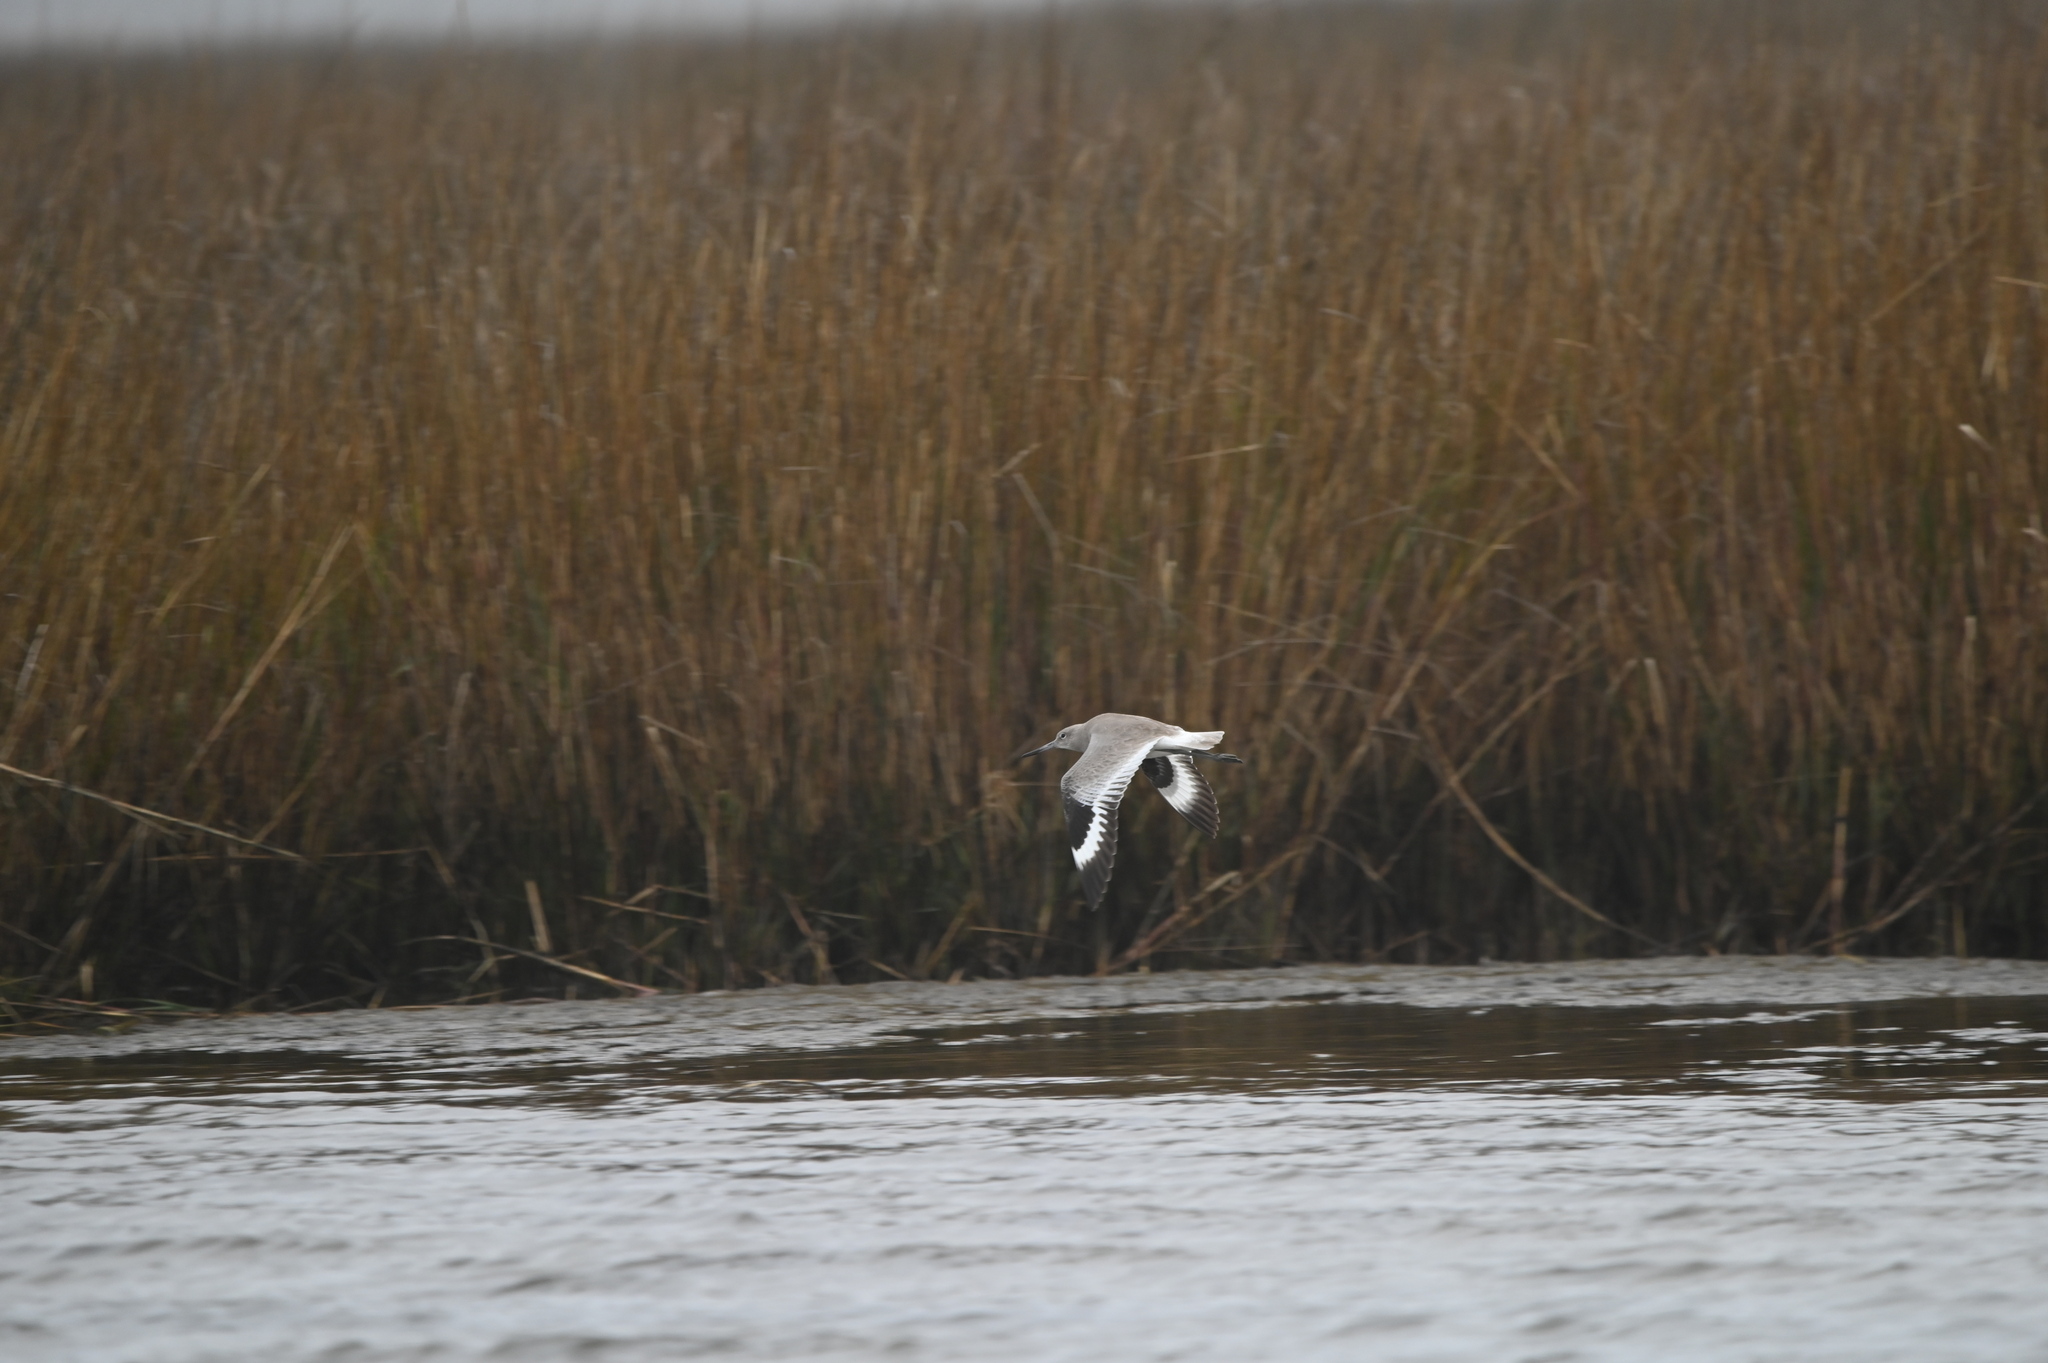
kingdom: Animalia
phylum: Chordata
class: Aves
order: Charadriiformes
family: Scolopacidae
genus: Tringa
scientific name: Tringa semipalmata
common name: Willet
